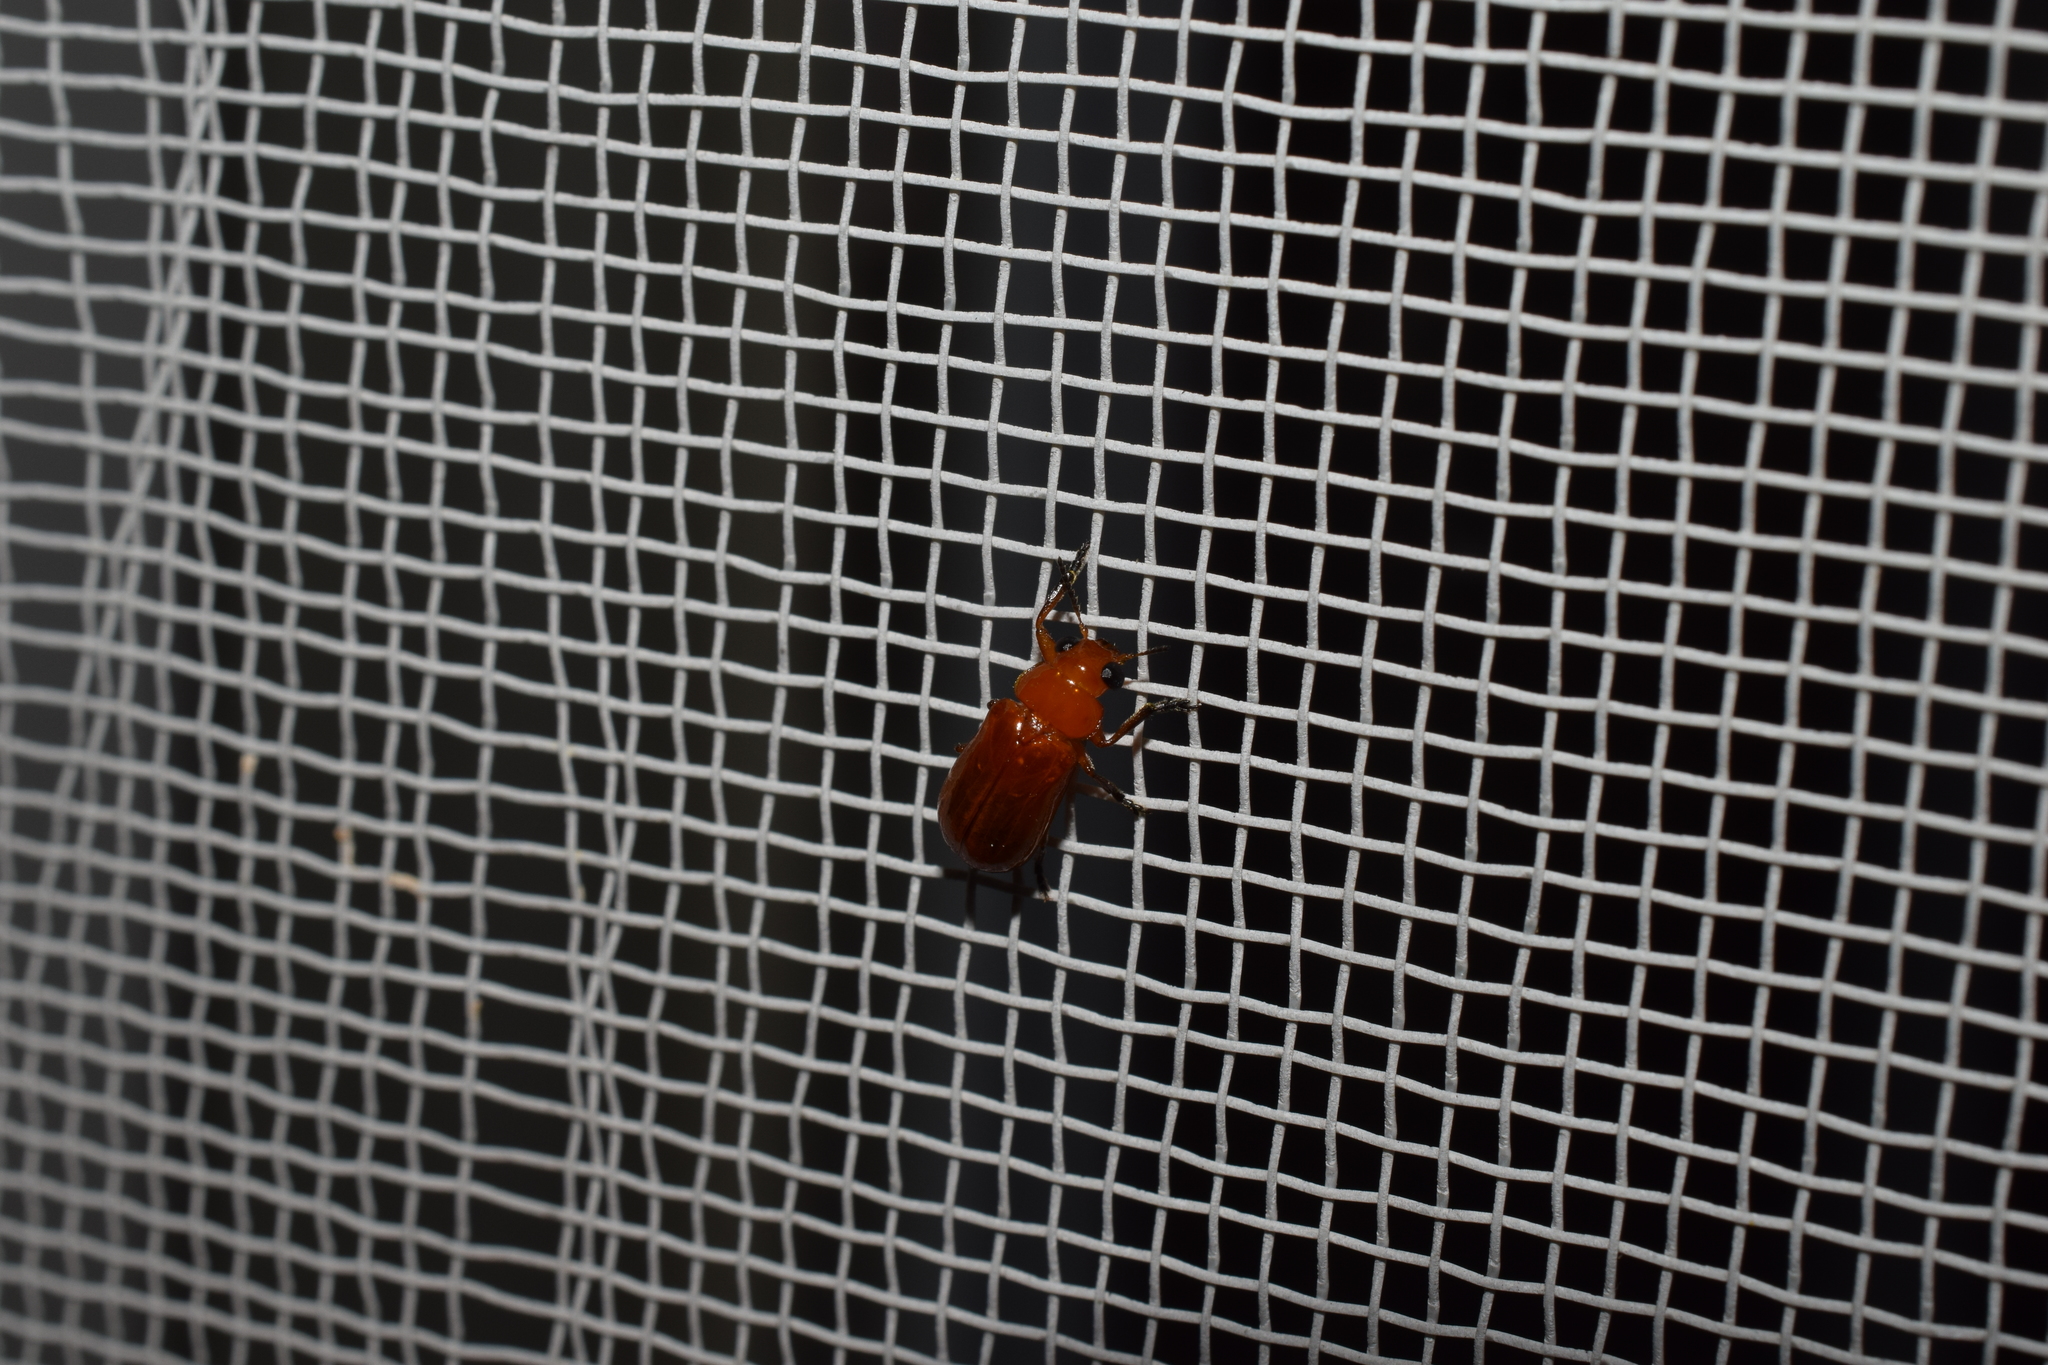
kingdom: Animalia
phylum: Arthropoda
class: Insecta
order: Coleoptera
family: Chrysomelidae
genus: Smaragdina
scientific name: Smaragdina
